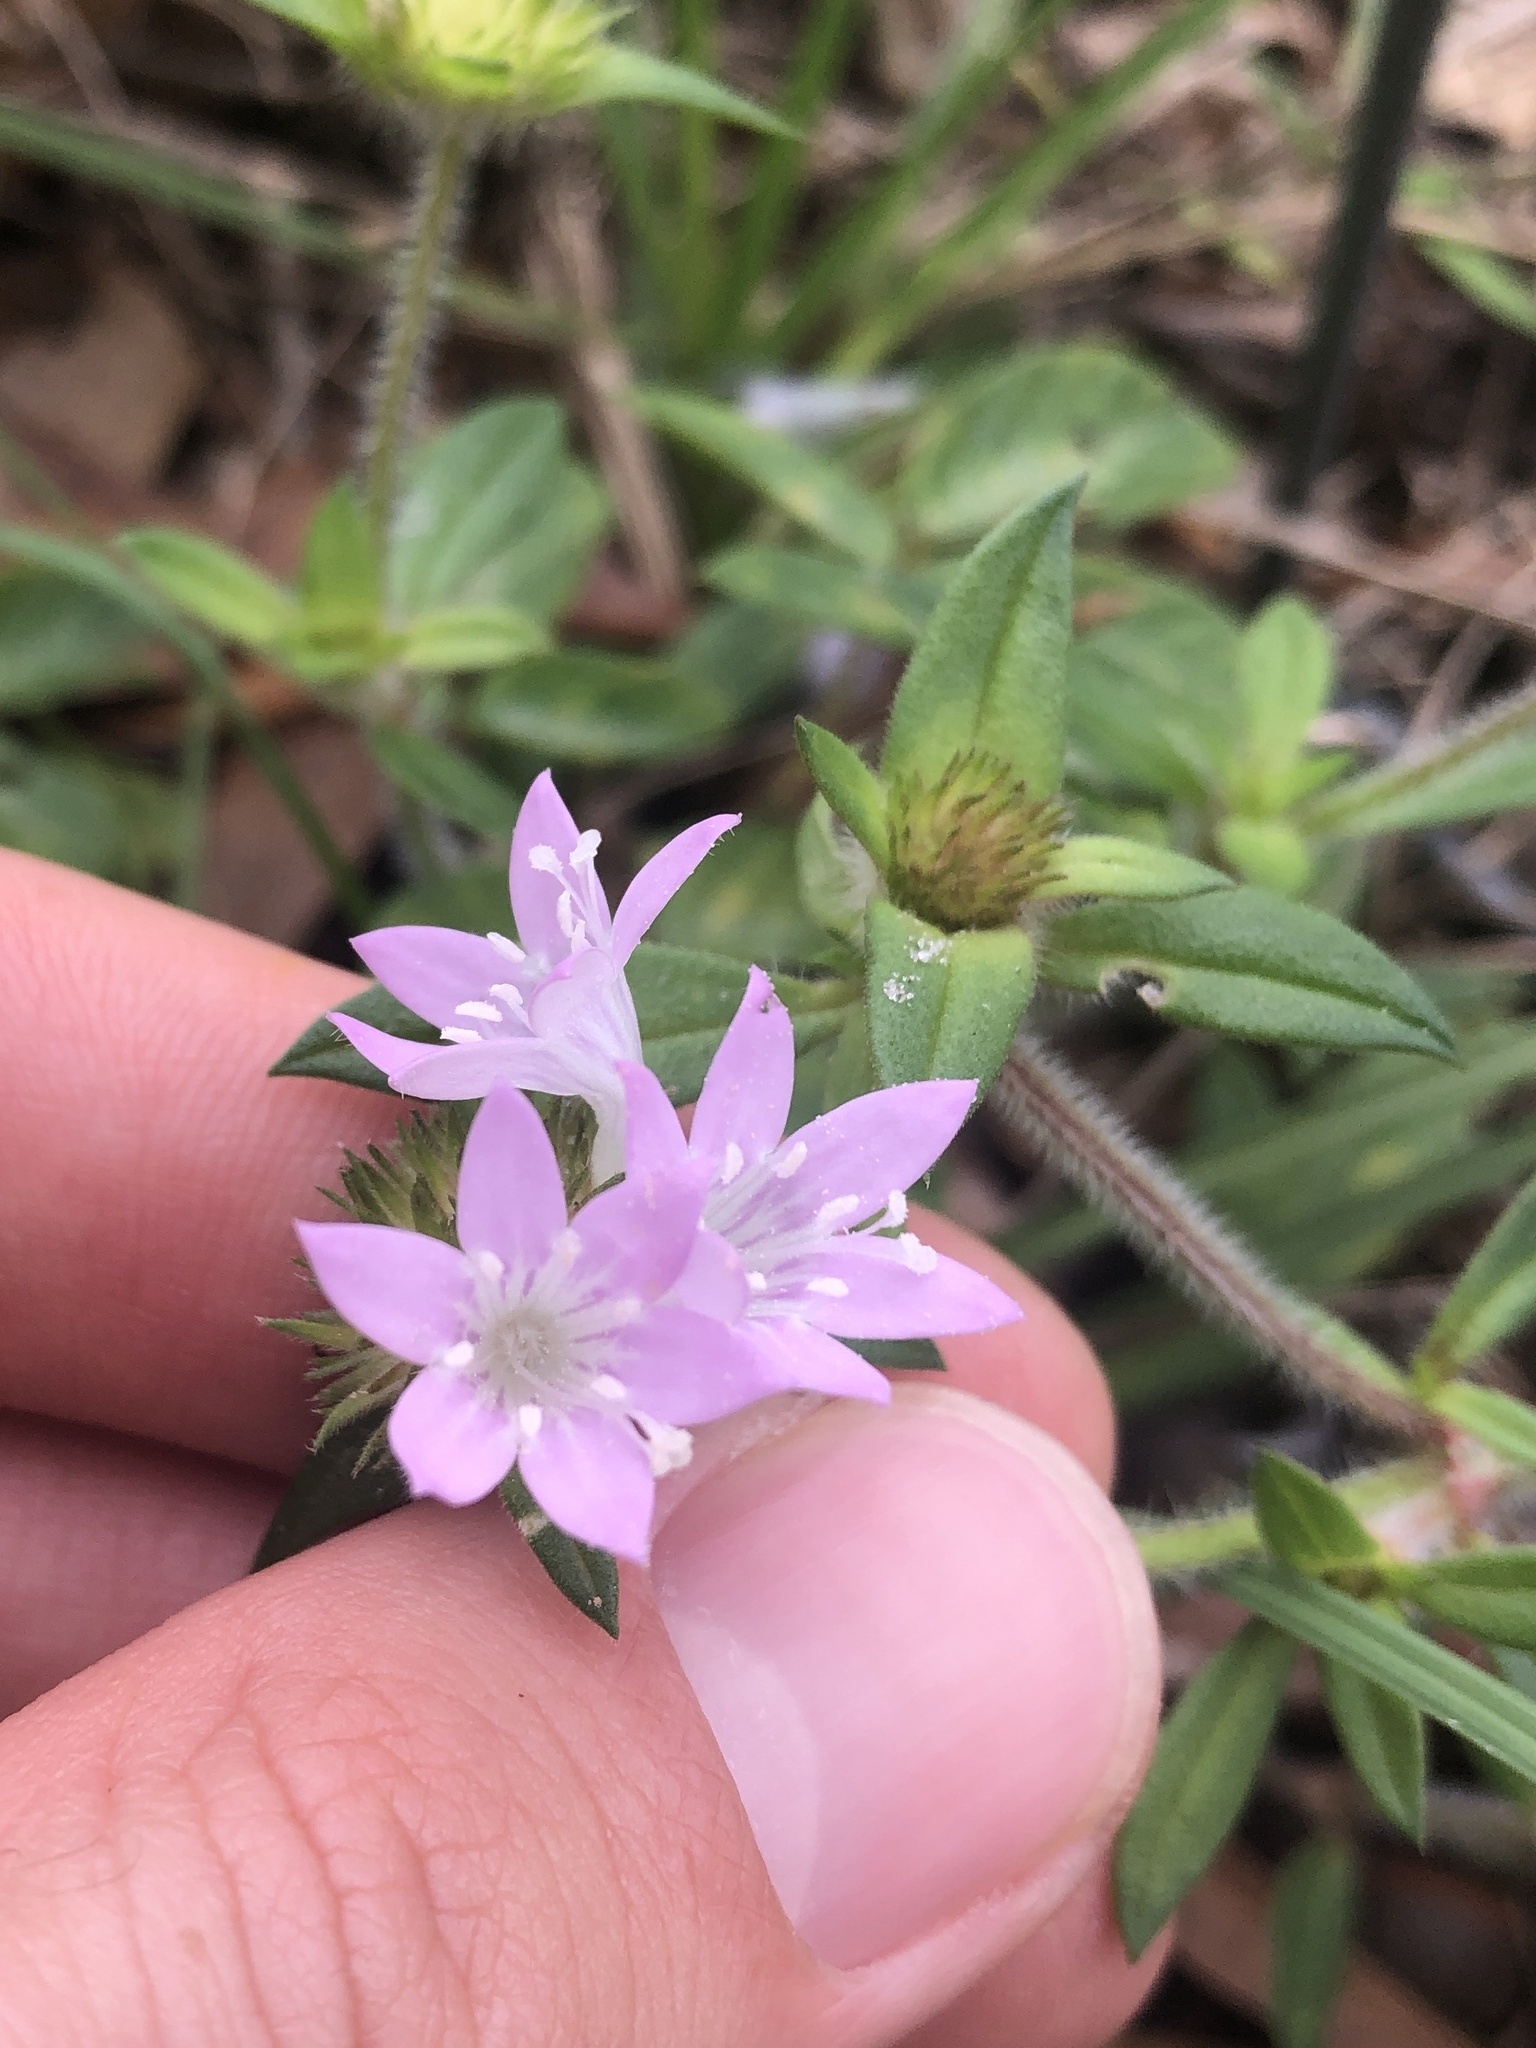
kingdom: Plantae
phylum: Tracheophyta
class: Magnoliopsida
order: Gentianales
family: Rubiaceae
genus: Richardia
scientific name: Richardia grandiflora
